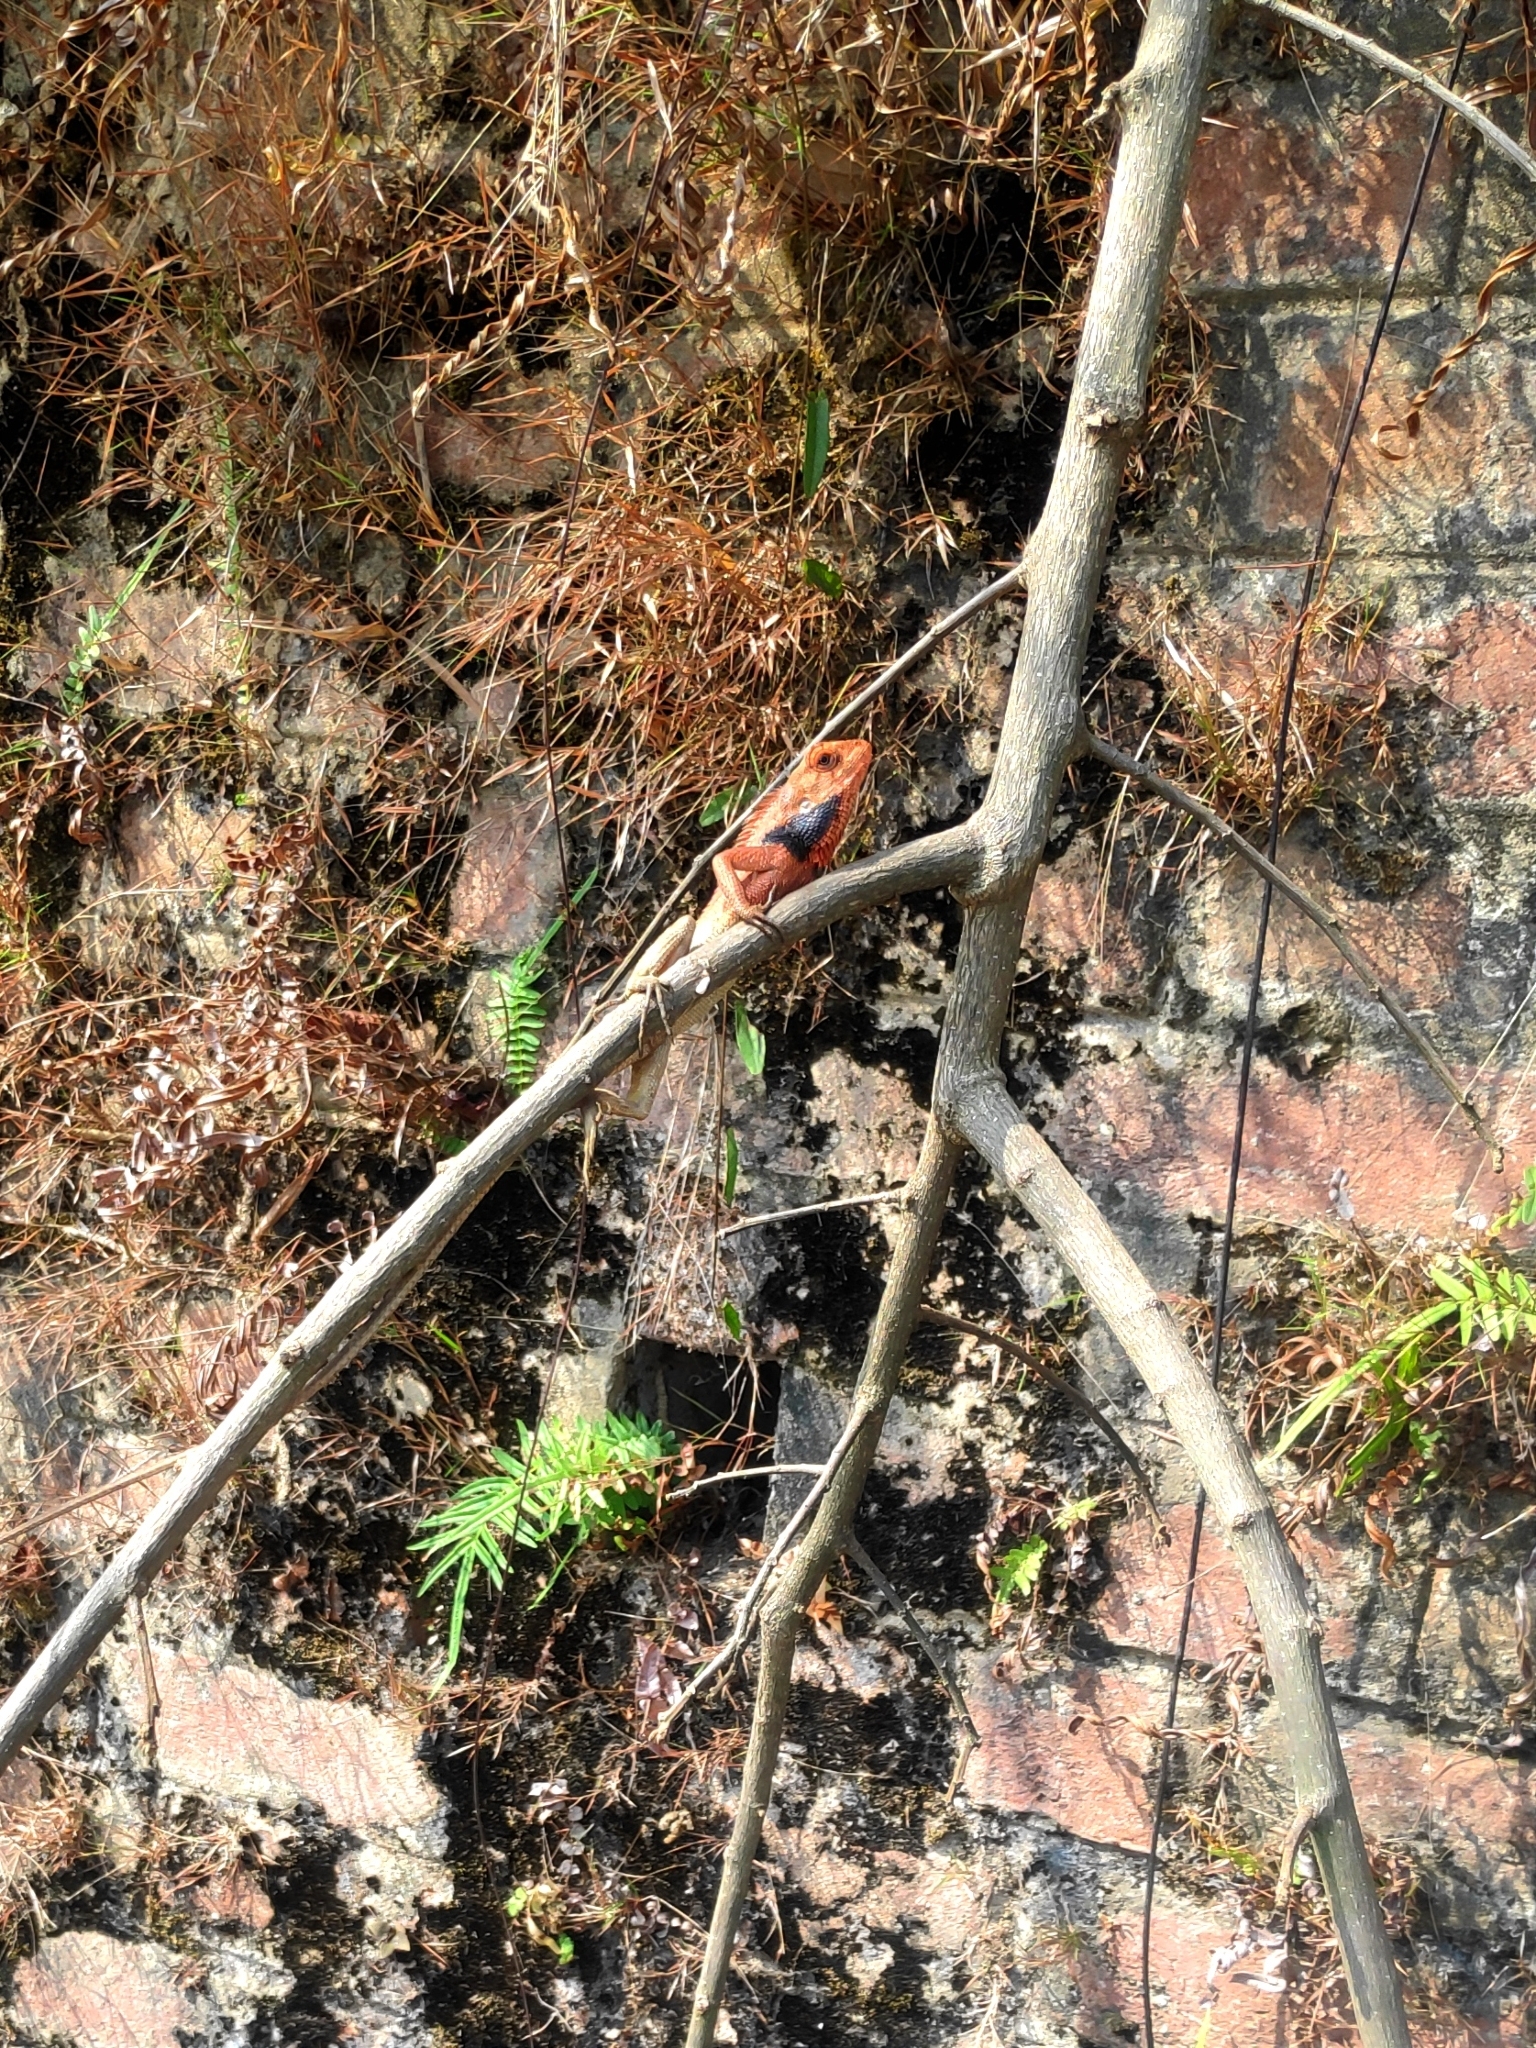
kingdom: Animalia
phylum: Chordata
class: Squamata
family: Agamidae
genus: Calotes
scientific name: Calotes versicolor
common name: Oriental garden lizard
